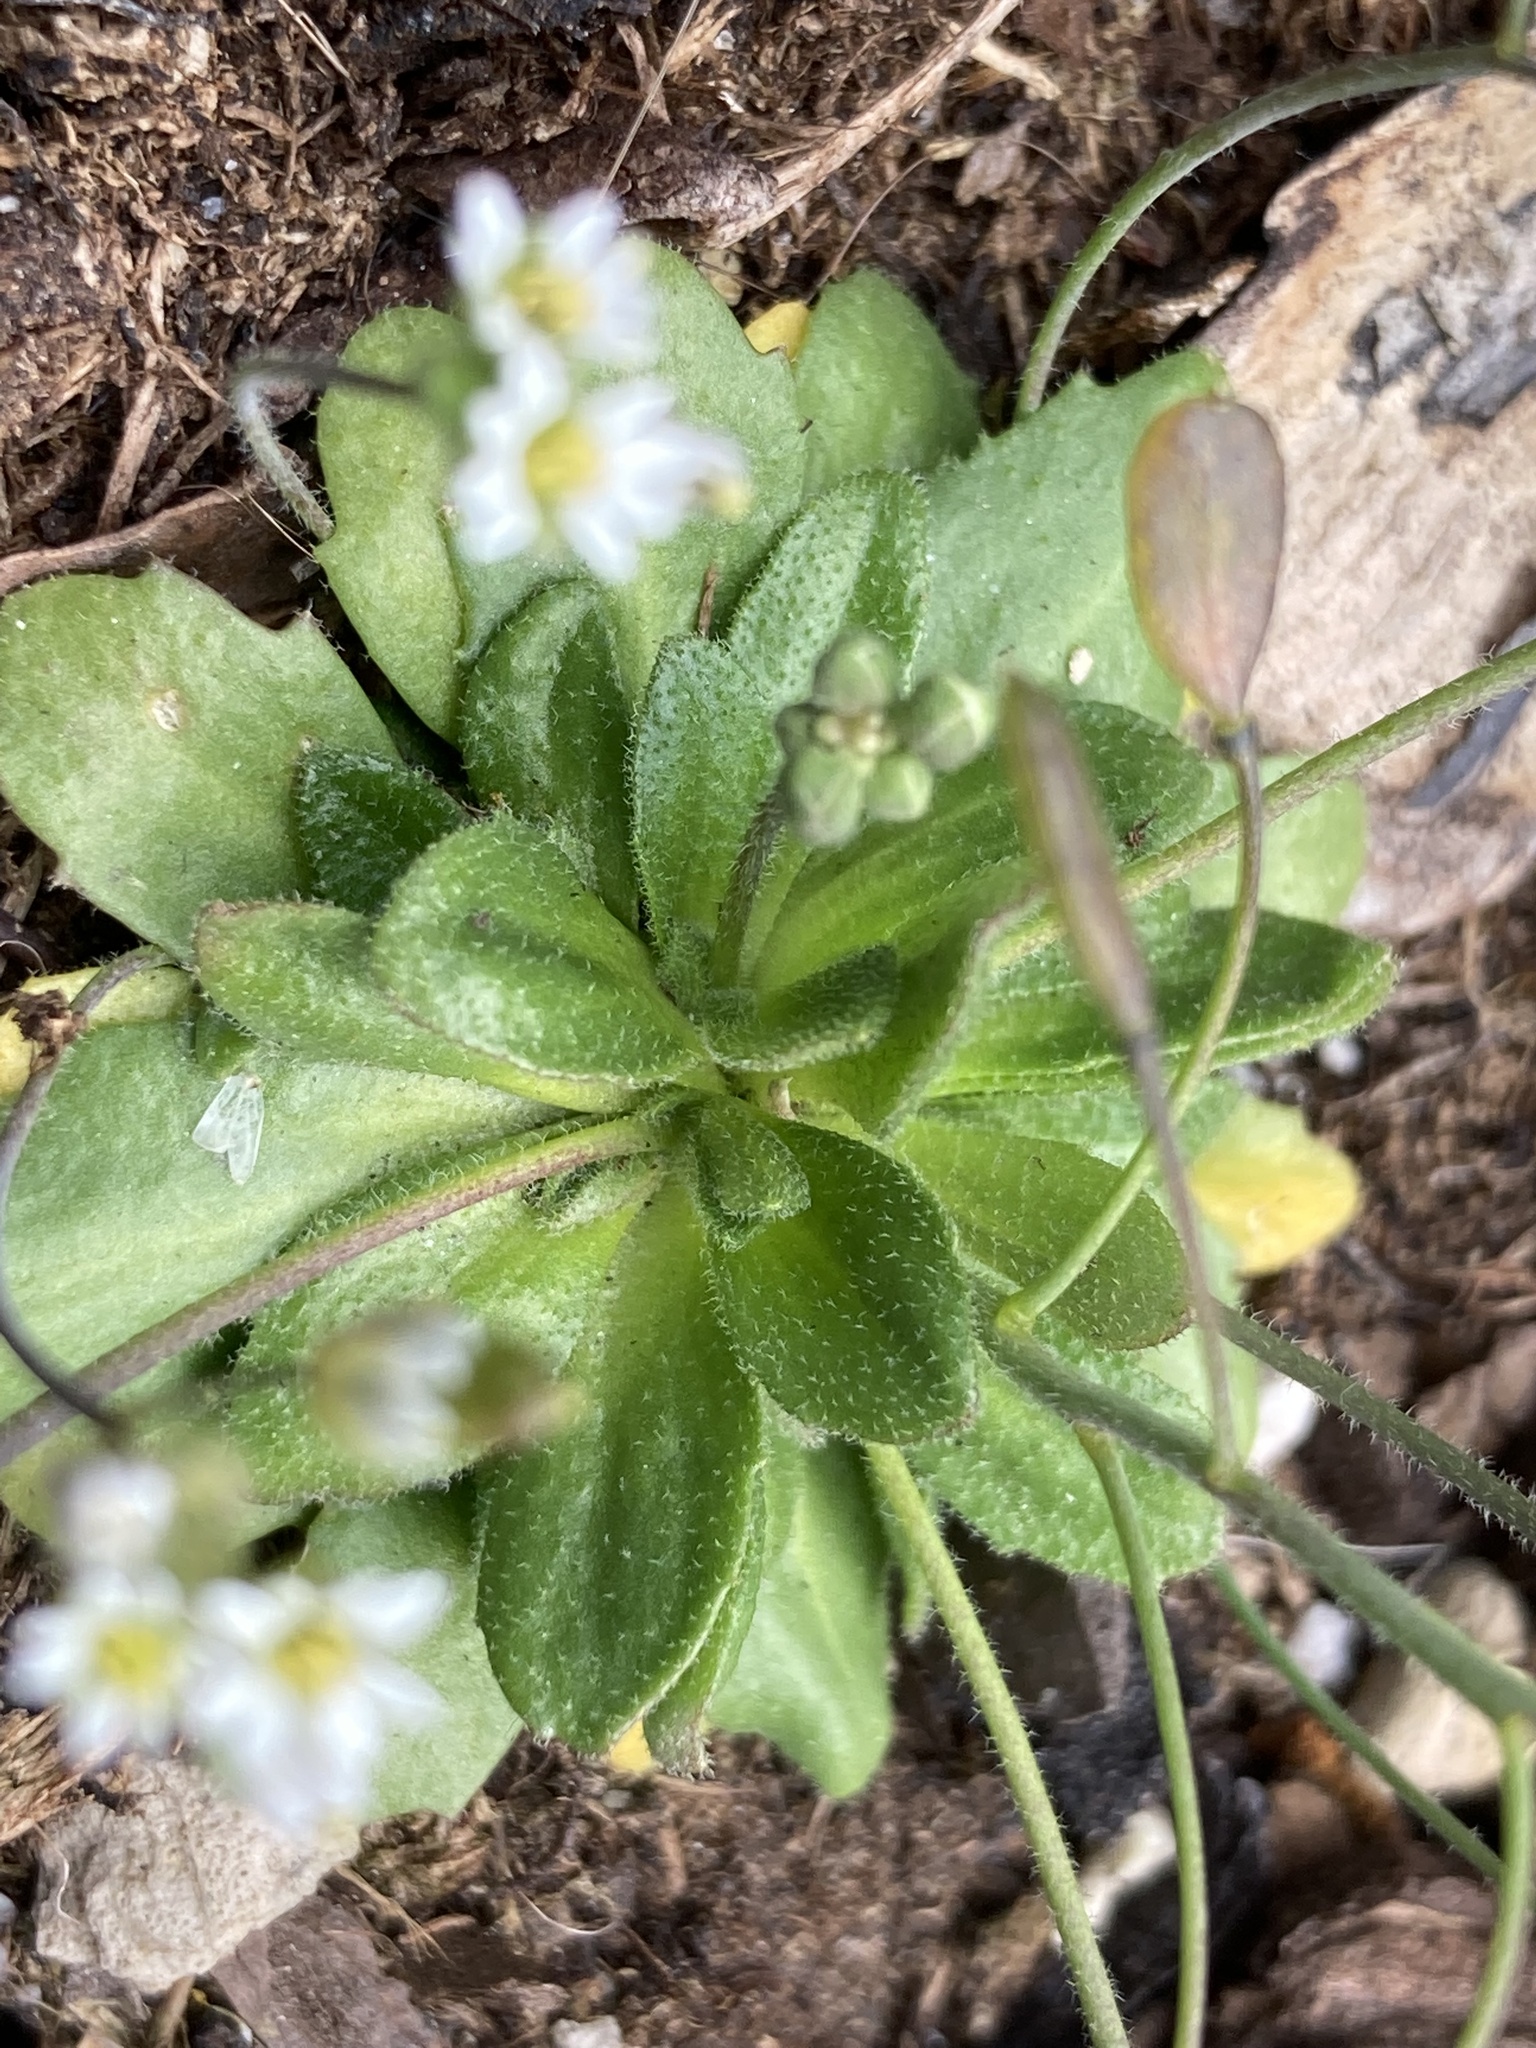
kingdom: Plantae
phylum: Tracheophyta
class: Magnoliopsida
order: Brassicales
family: Brassicaceae
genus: Draba
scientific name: Draba verna
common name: Spring draba
